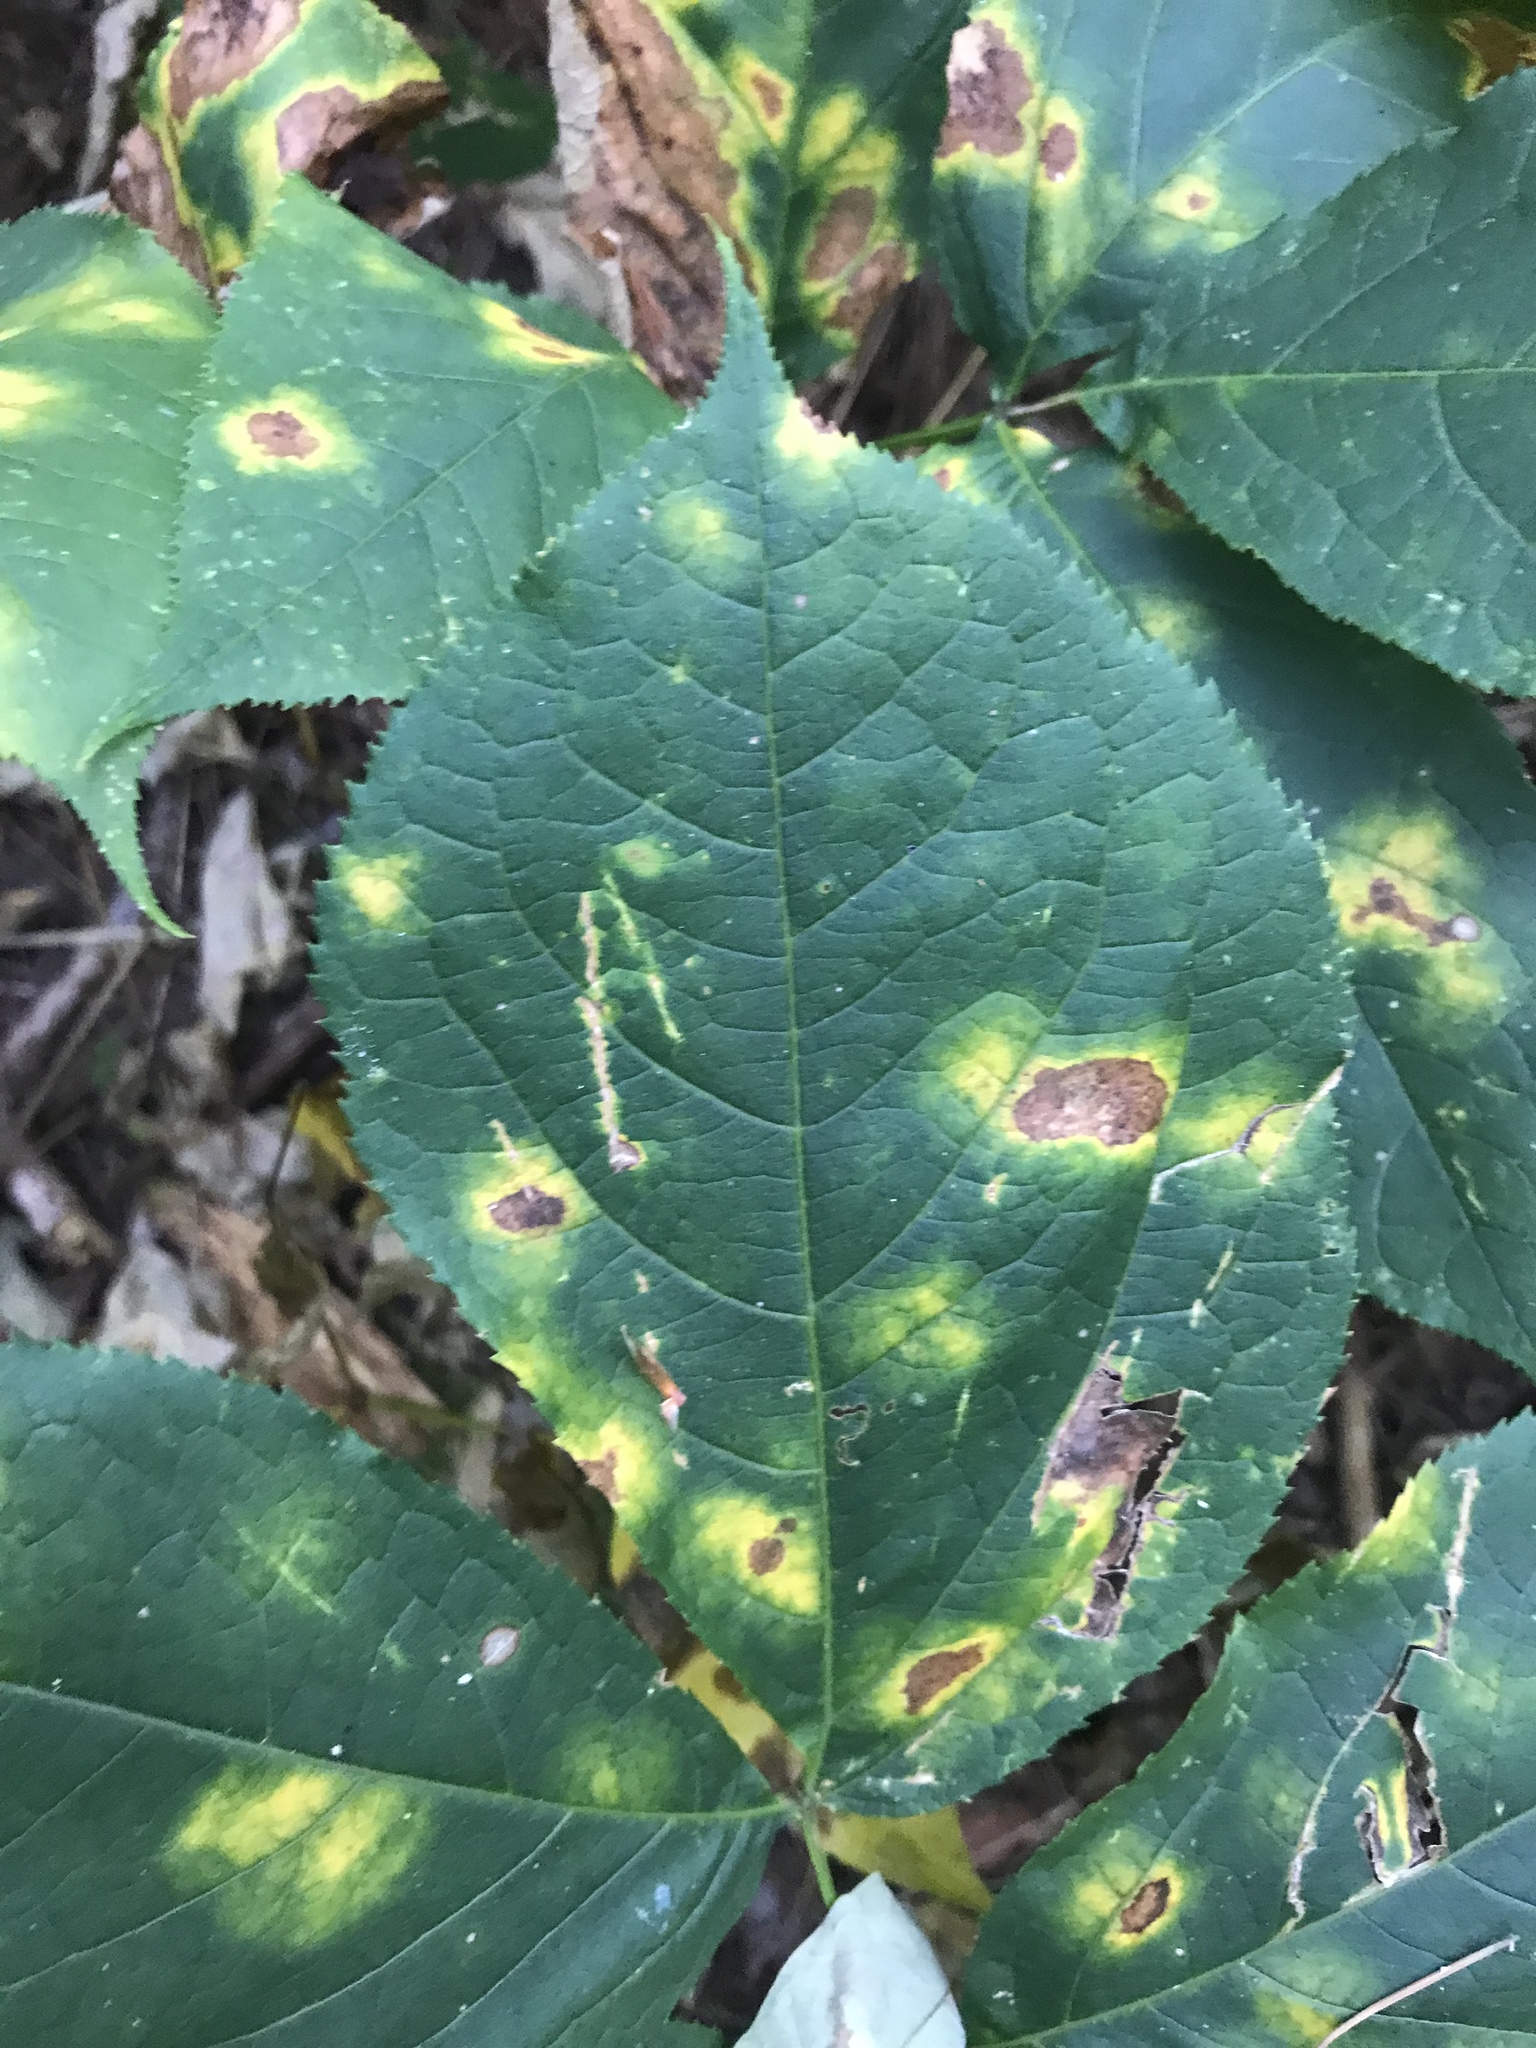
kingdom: Plantae
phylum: Tracheophyta
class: Magnoliopsida
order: Apiales
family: Araliaceae
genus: Aralia
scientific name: Aralia nudicaulis
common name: Wild sarsaparilla
